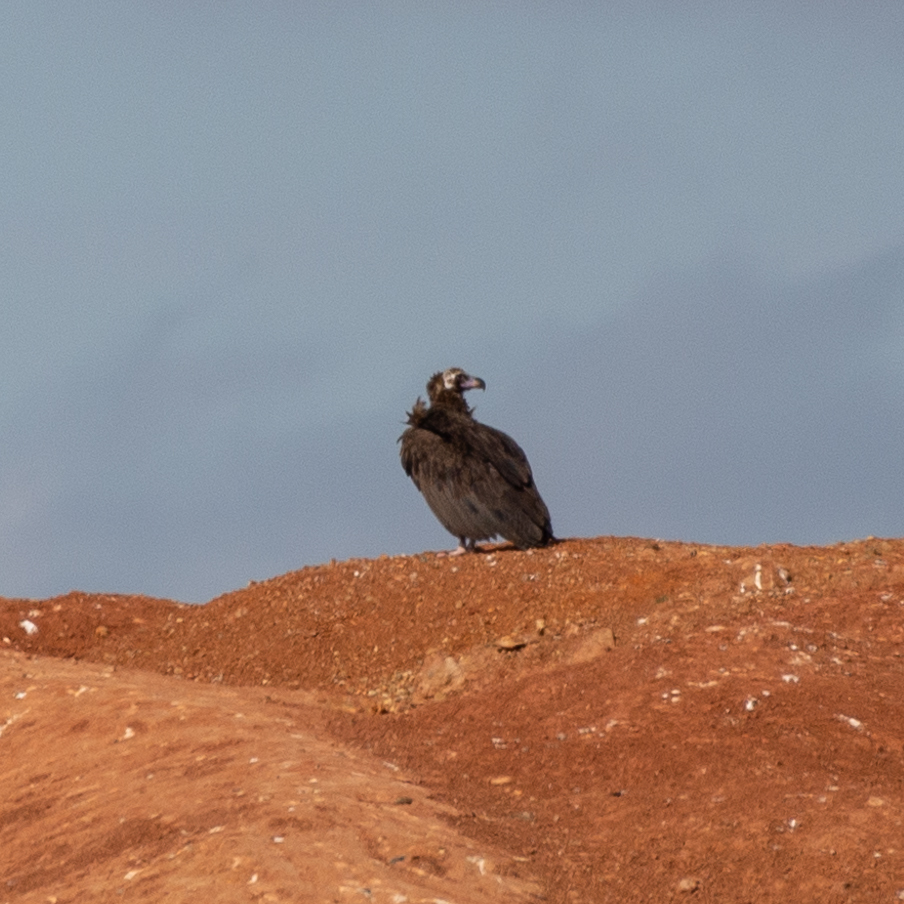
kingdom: Animalia
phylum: Chordata
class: Aves
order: Accipitriformes
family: Accipitridae
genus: Aegypius
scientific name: Aegypius monachus
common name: Cinereous vulture
